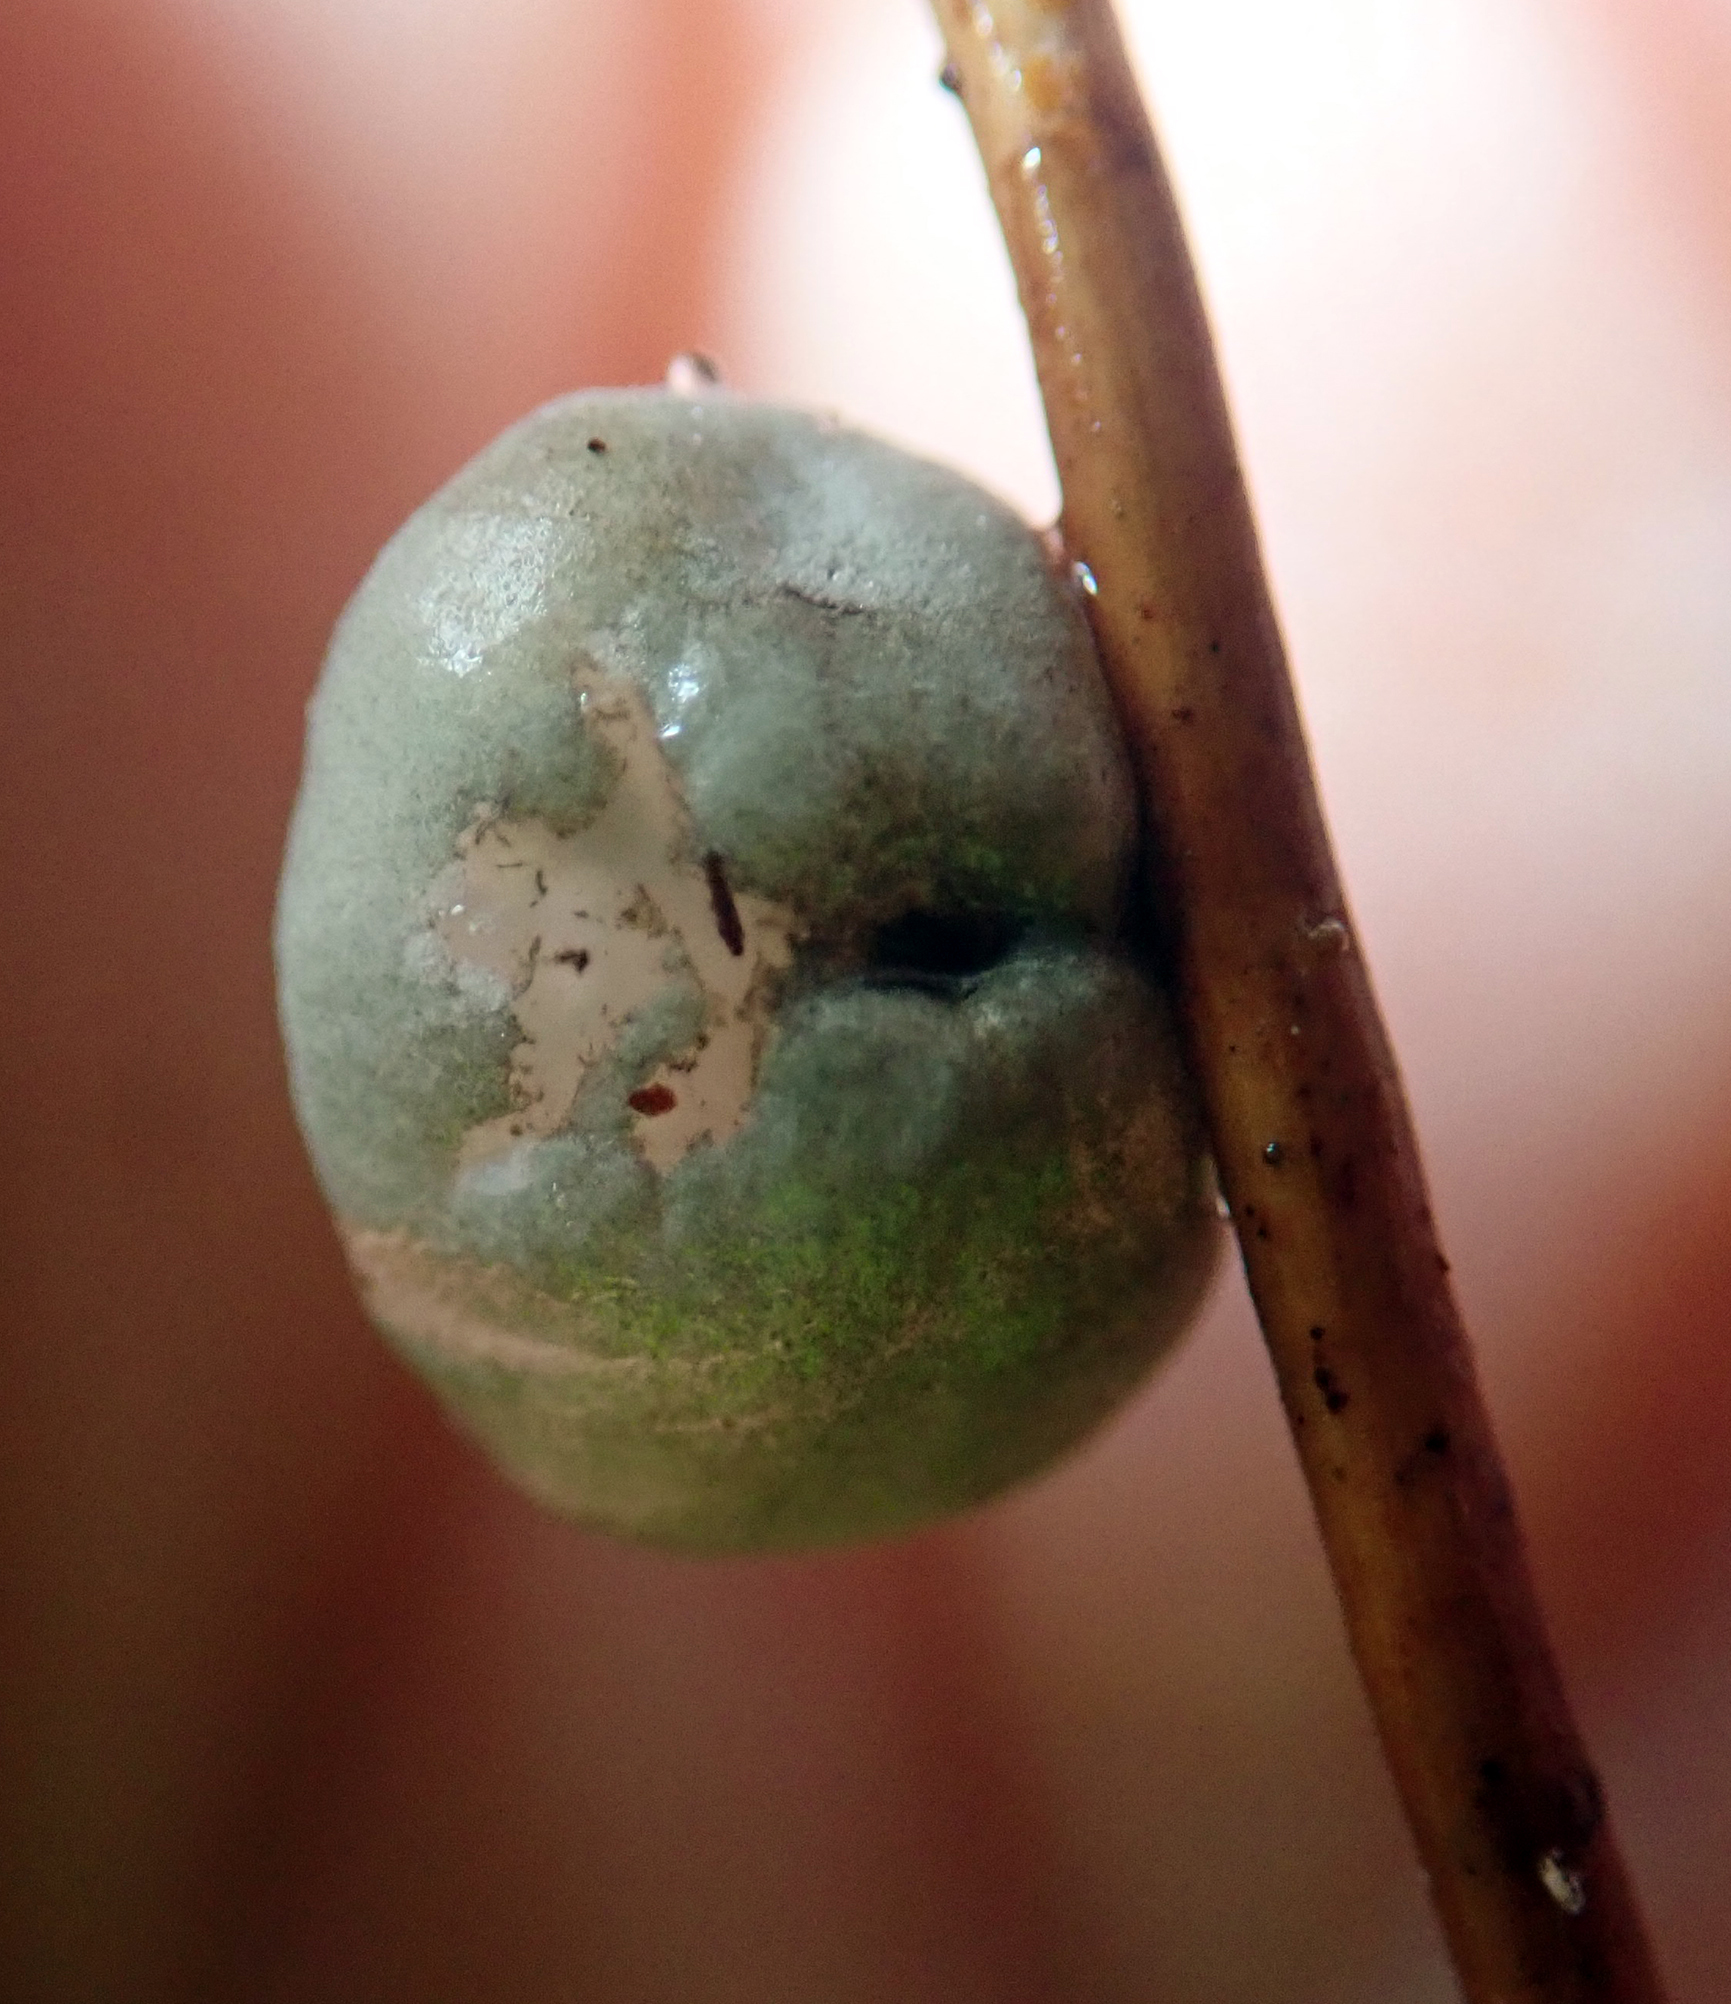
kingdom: Fungi
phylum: Basidiomycota
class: Agaricomycetes
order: Agaricales
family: Marasmiaceae
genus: Campanella
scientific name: Campanella tristis
